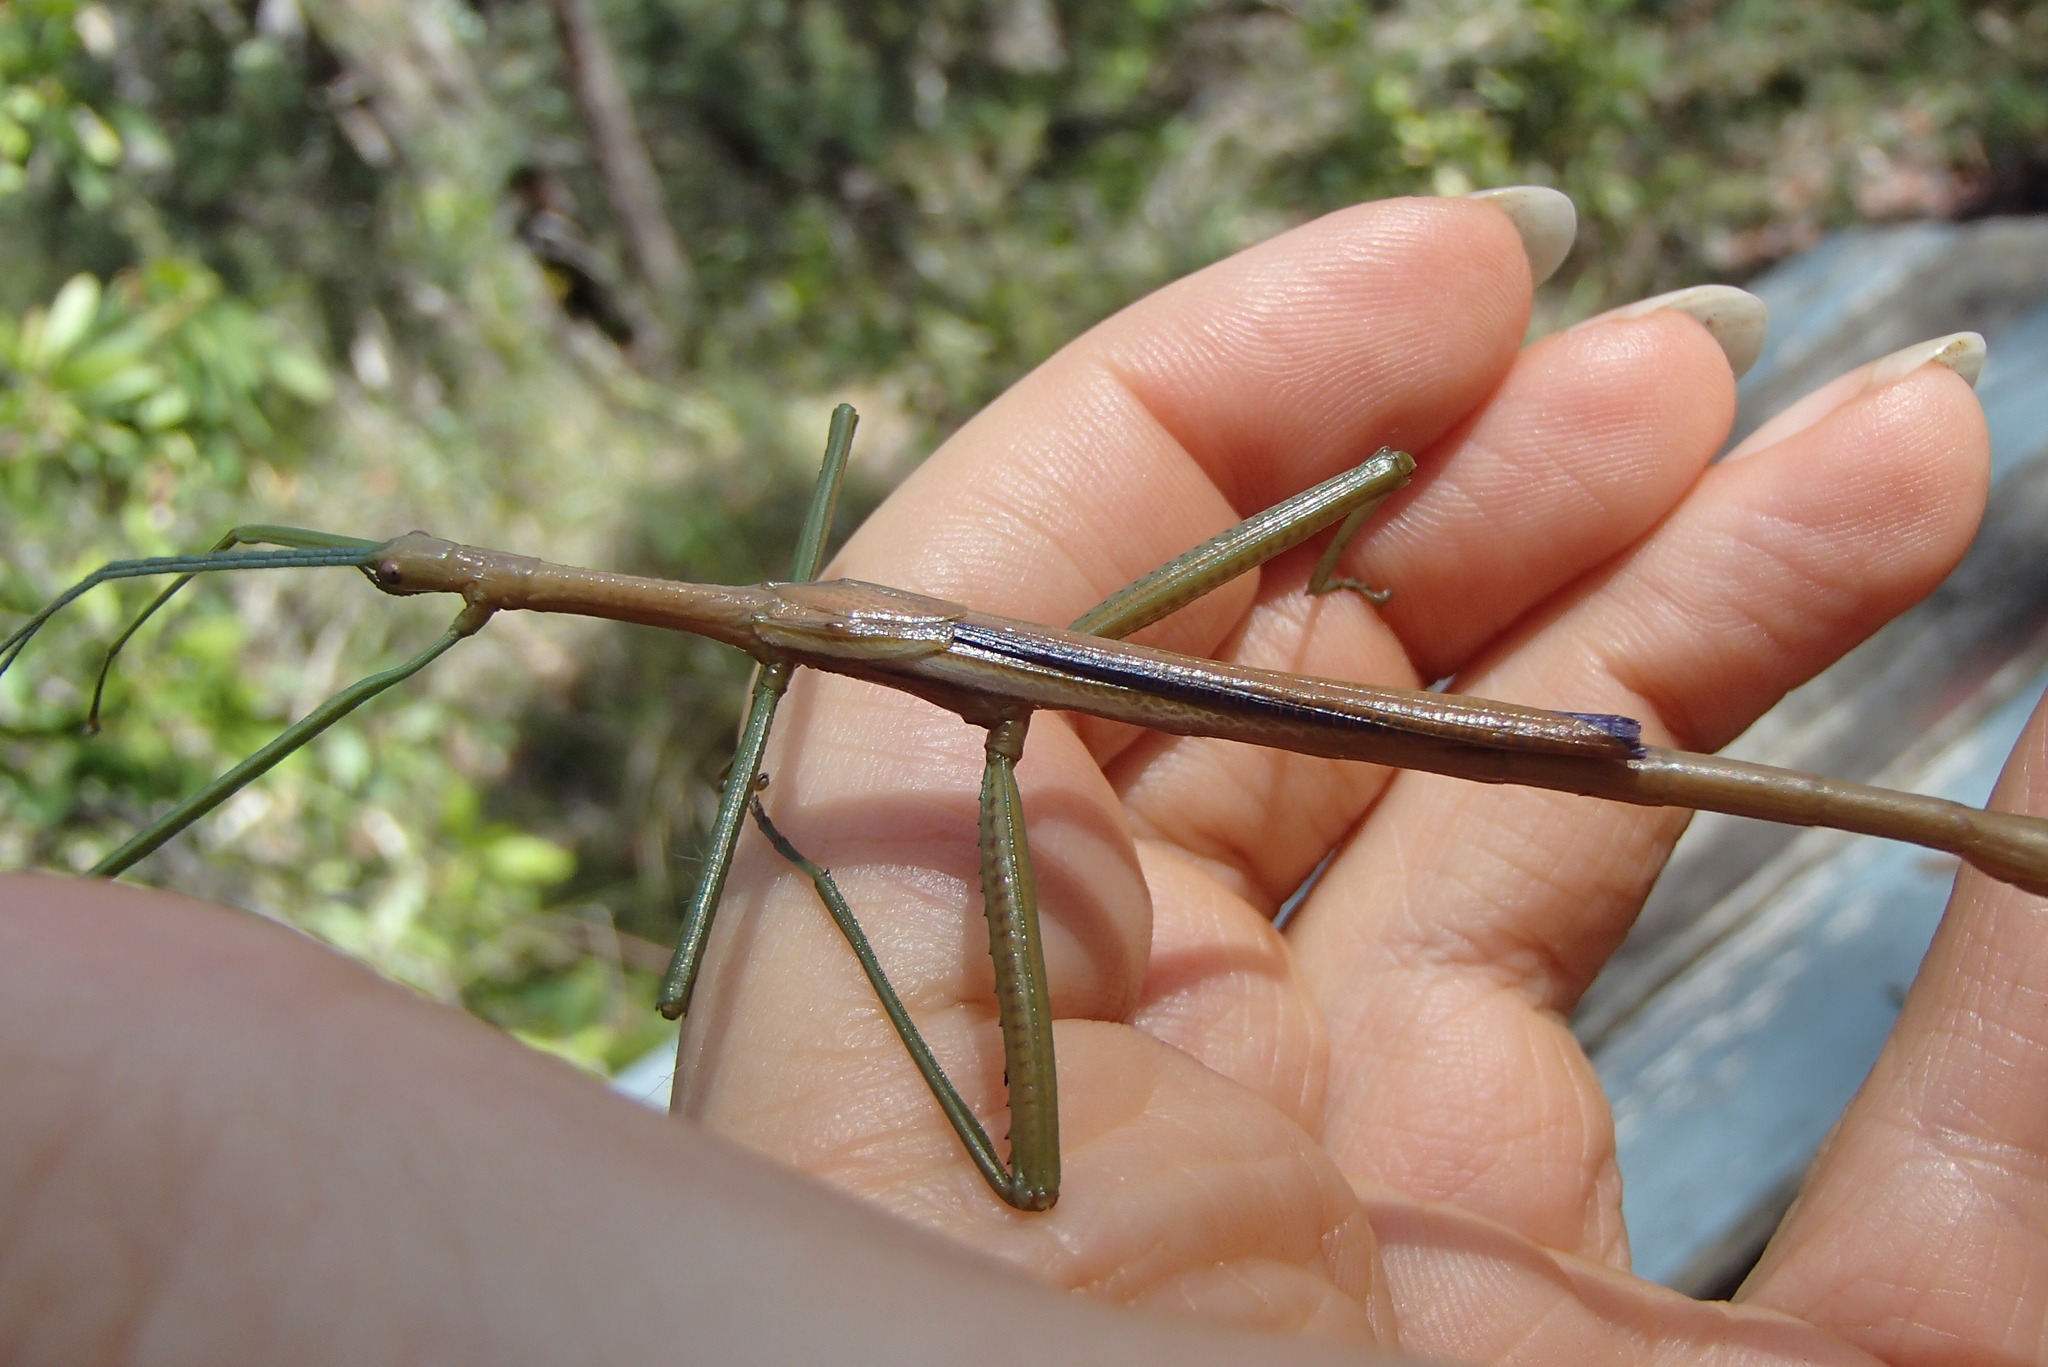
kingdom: Animalia
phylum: Arthropoda
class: Insecta
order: Phasmida
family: Phasmatidae
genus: Didymuria
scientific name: Didymuria violescens
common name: Spur-legged stick-insect
